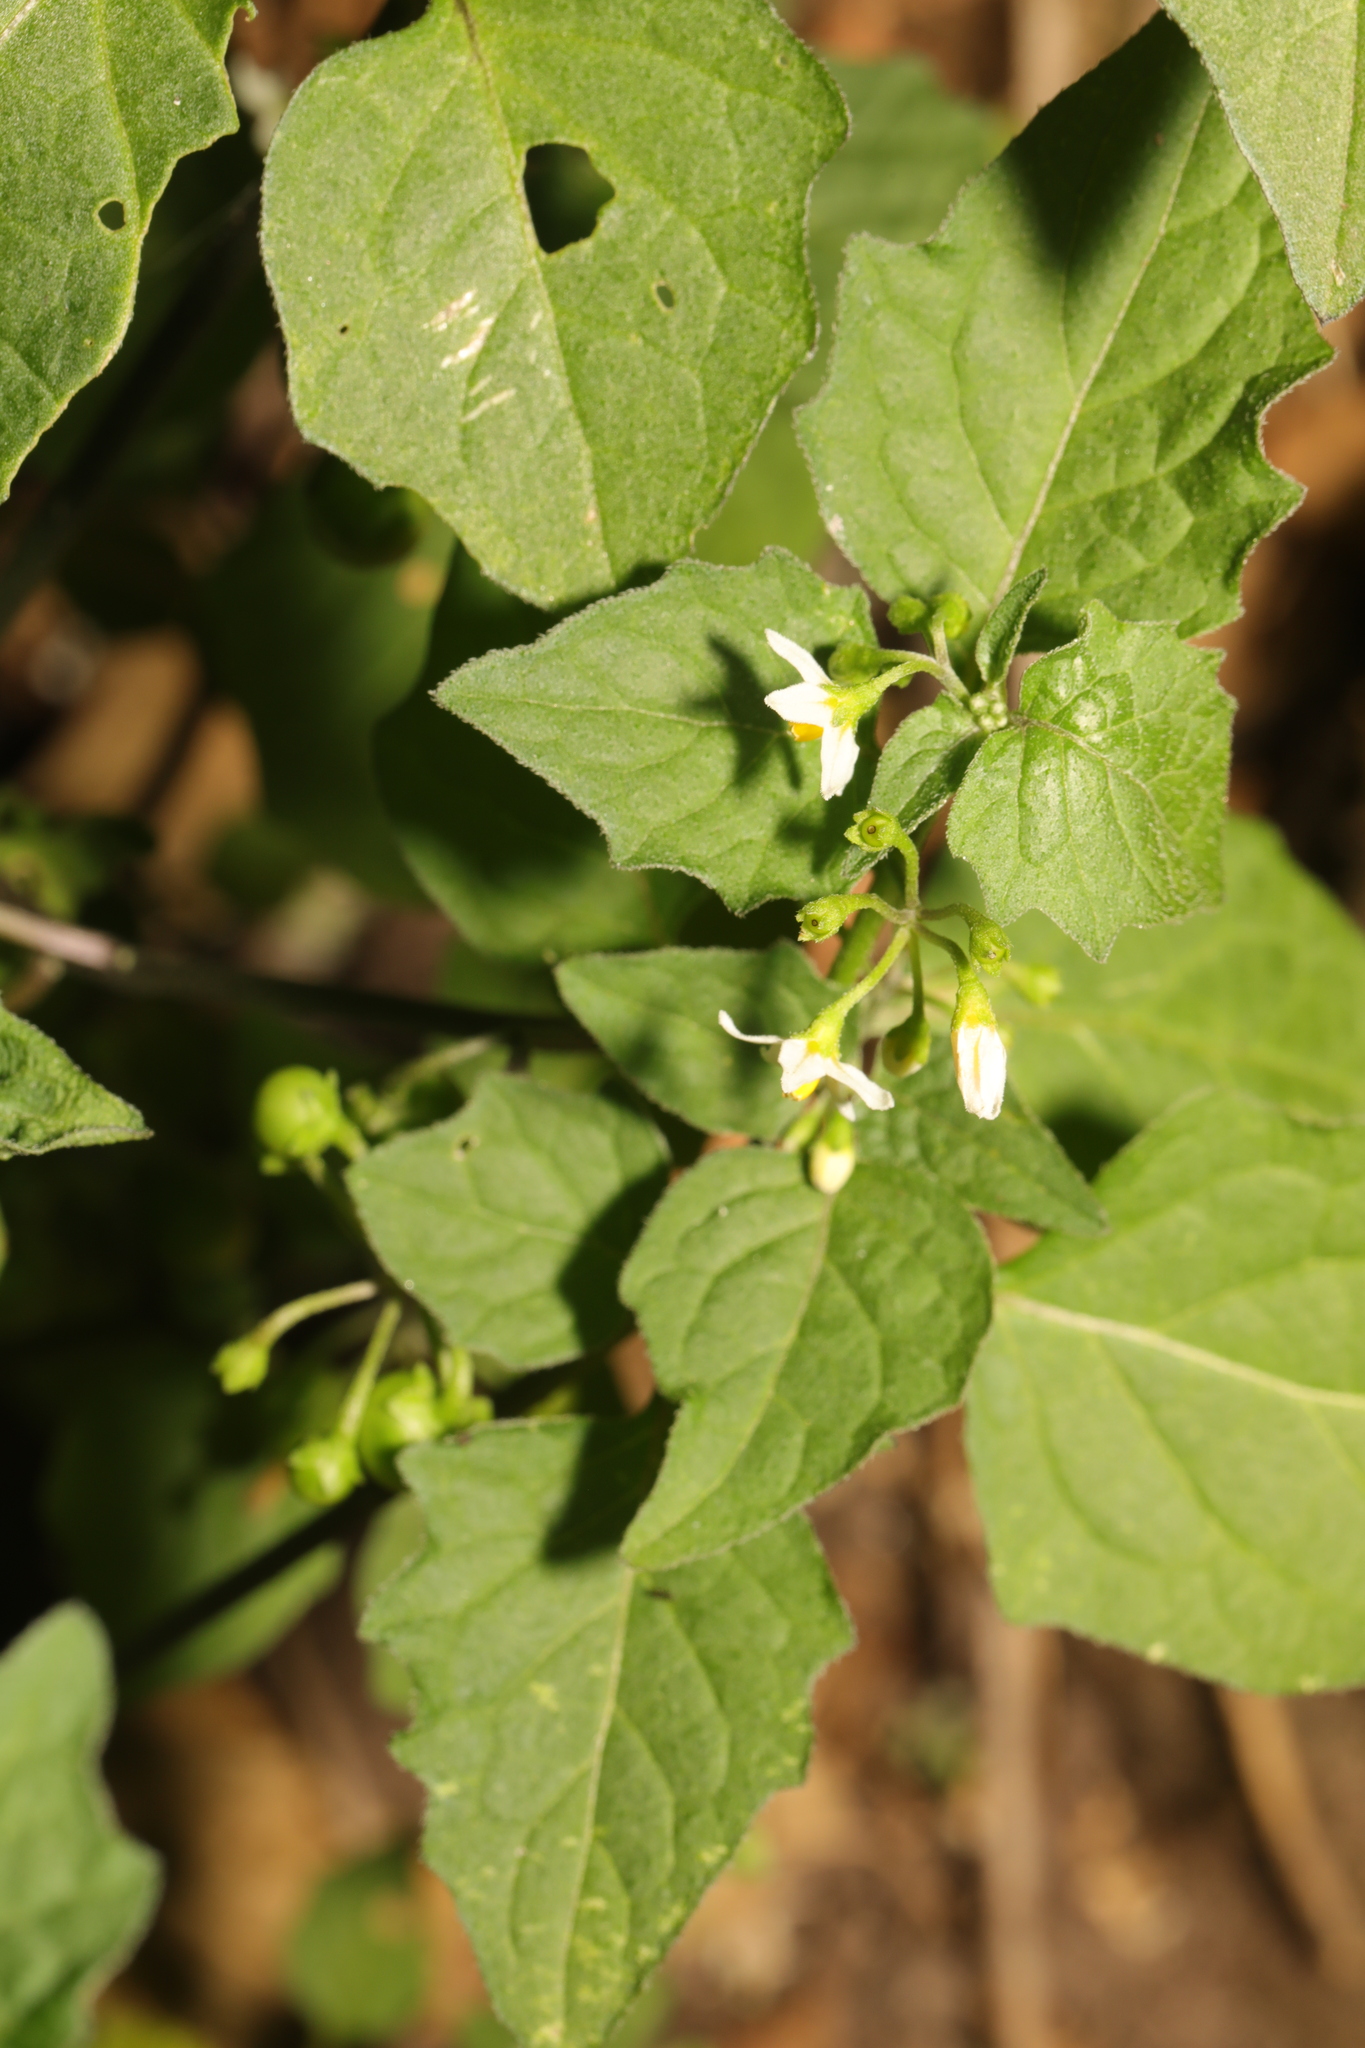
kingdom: Plantae
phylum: Tracheophyta
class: Magnoliopsida
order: Solanales
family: Solanaceae
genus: Solanum
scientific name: Solanum nigrum
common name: Black nightshade
